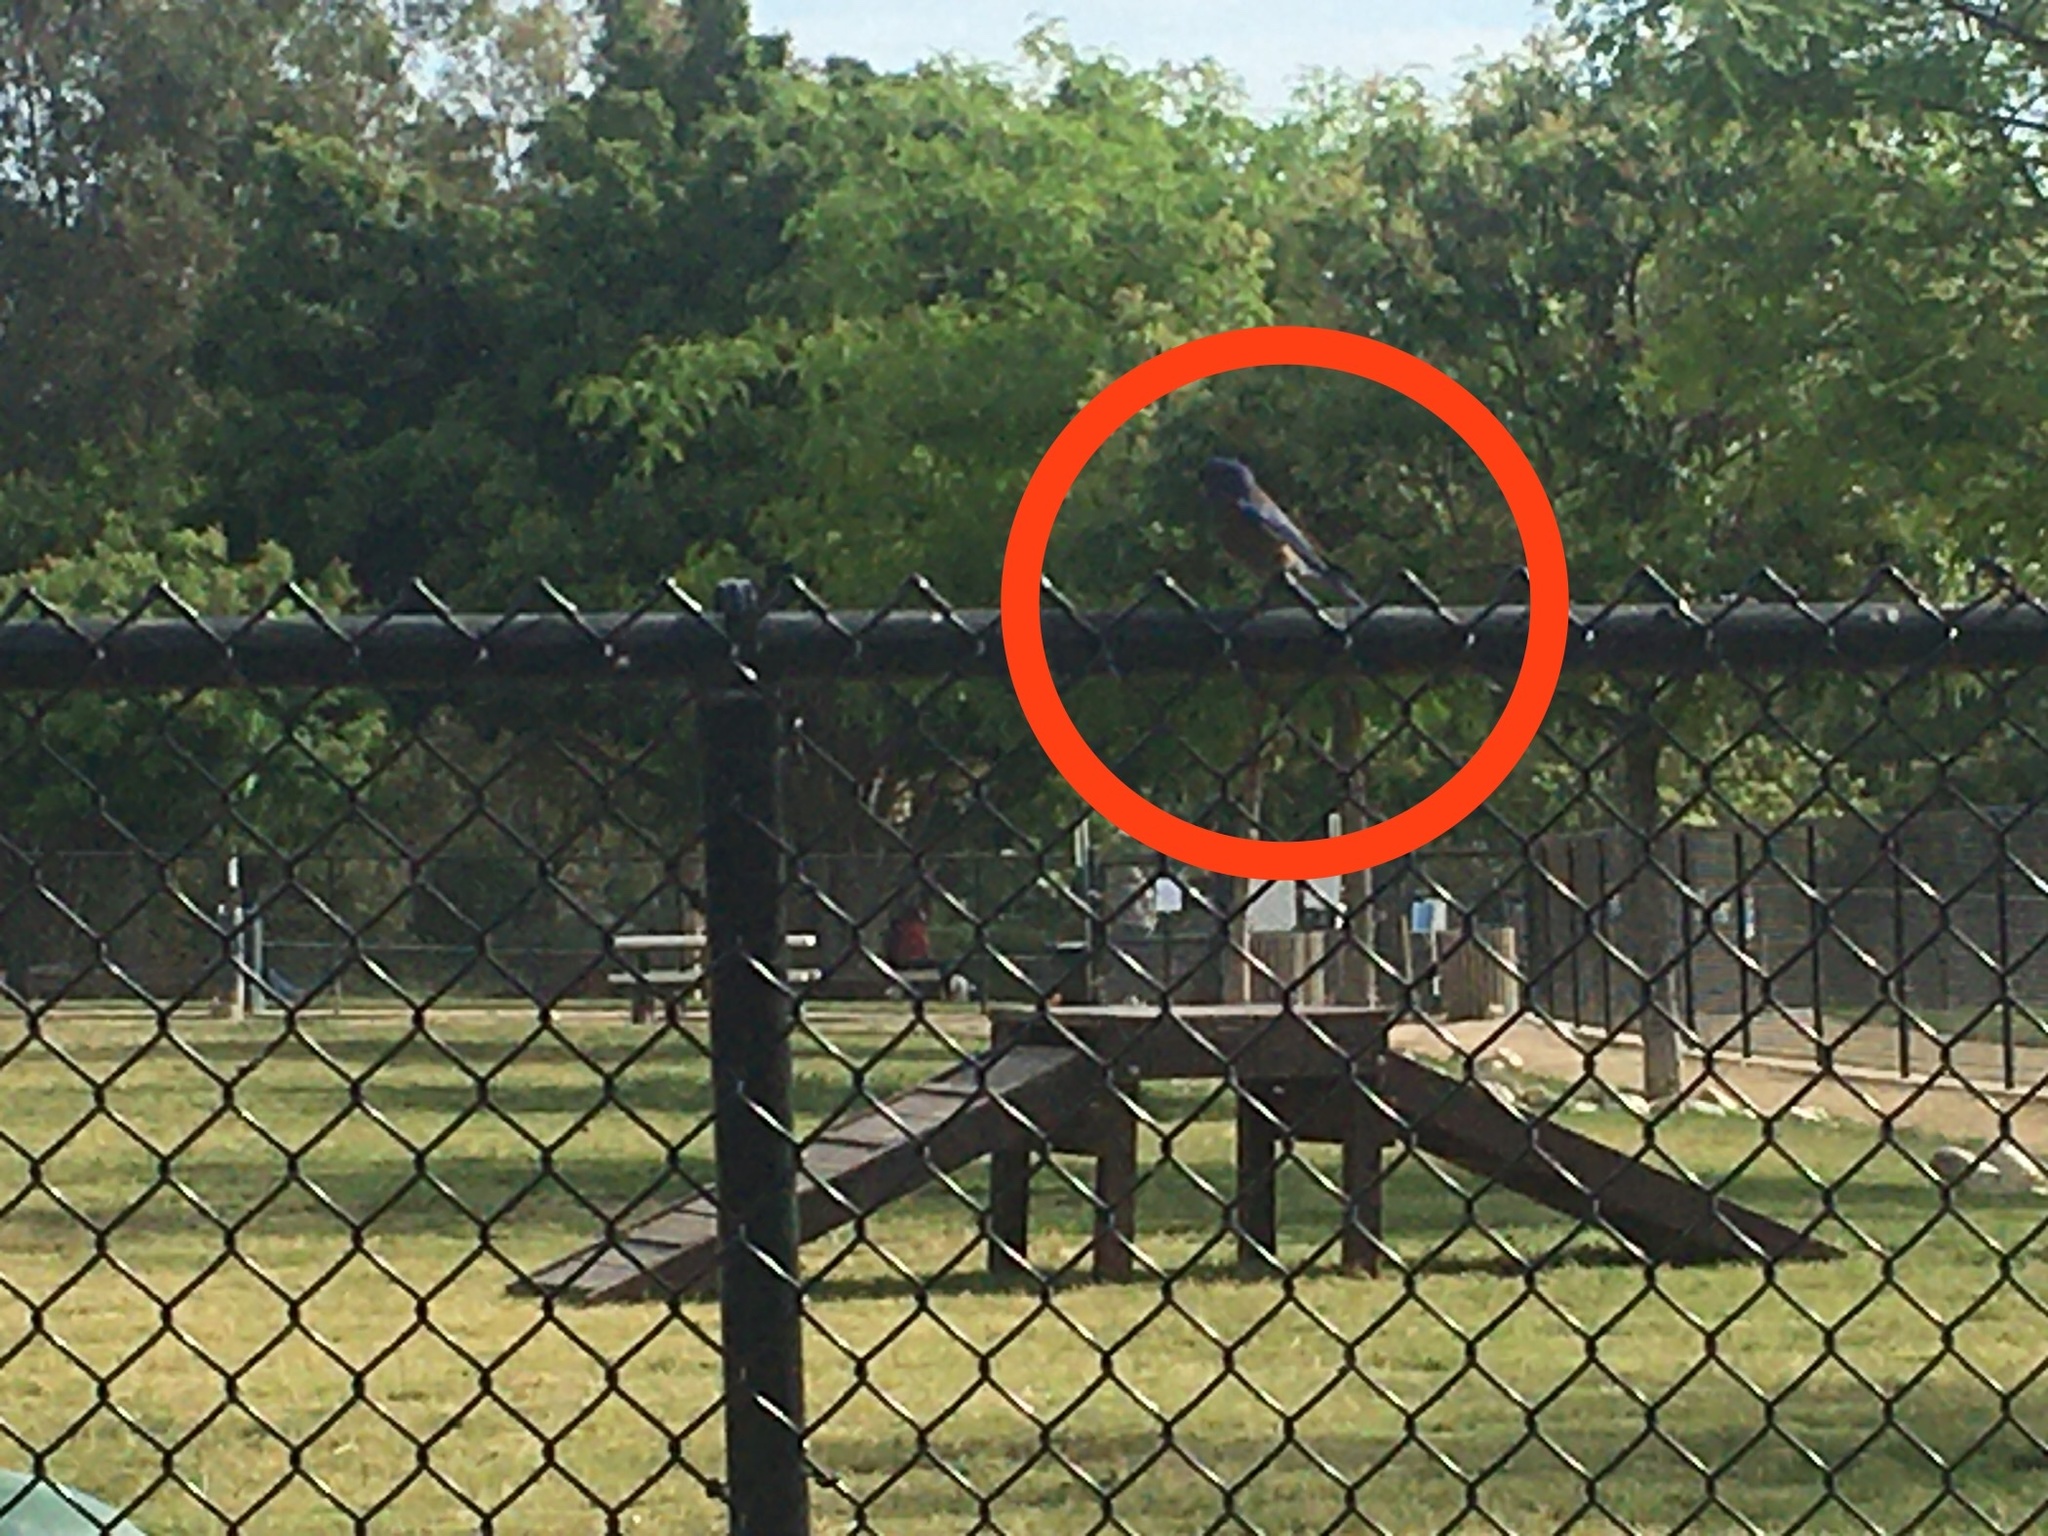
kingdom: Animalia
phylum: Chordata
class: Aves
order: Passeriformes
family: Turdidae
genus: Sialia
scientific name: Sialia mexicana
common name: Western bluebird
